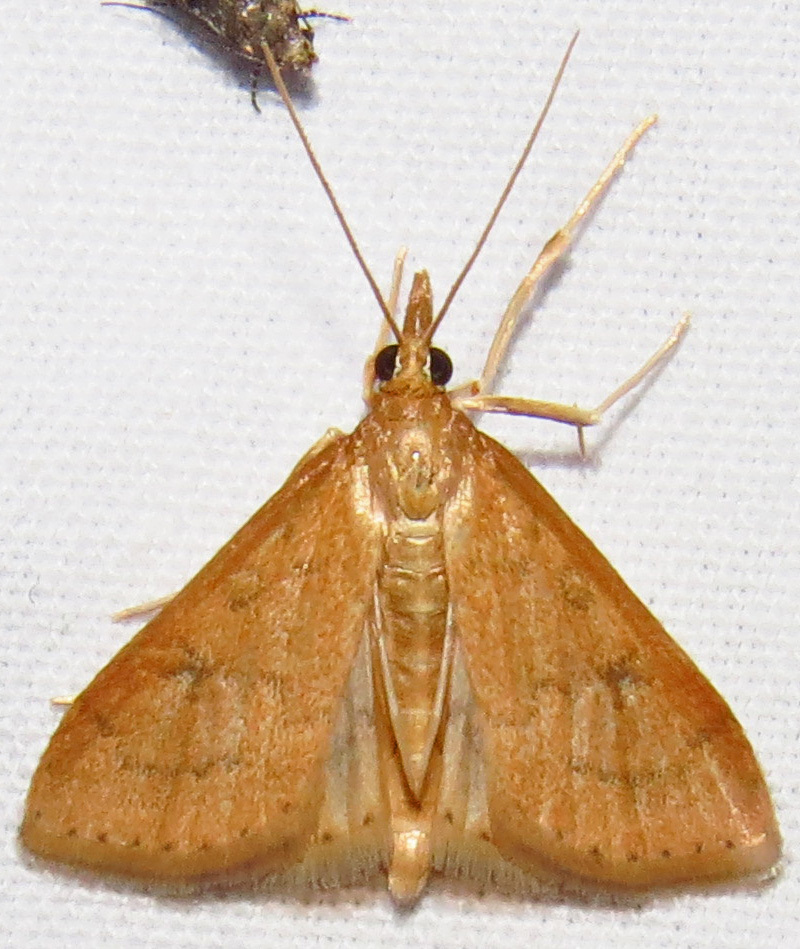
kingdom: Animalia
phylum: Arthropoda
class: Insecta
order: Lepidoptera
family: Crambidae
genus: Udea
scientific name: Udea rubigalis
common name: Celery leaftier moth
